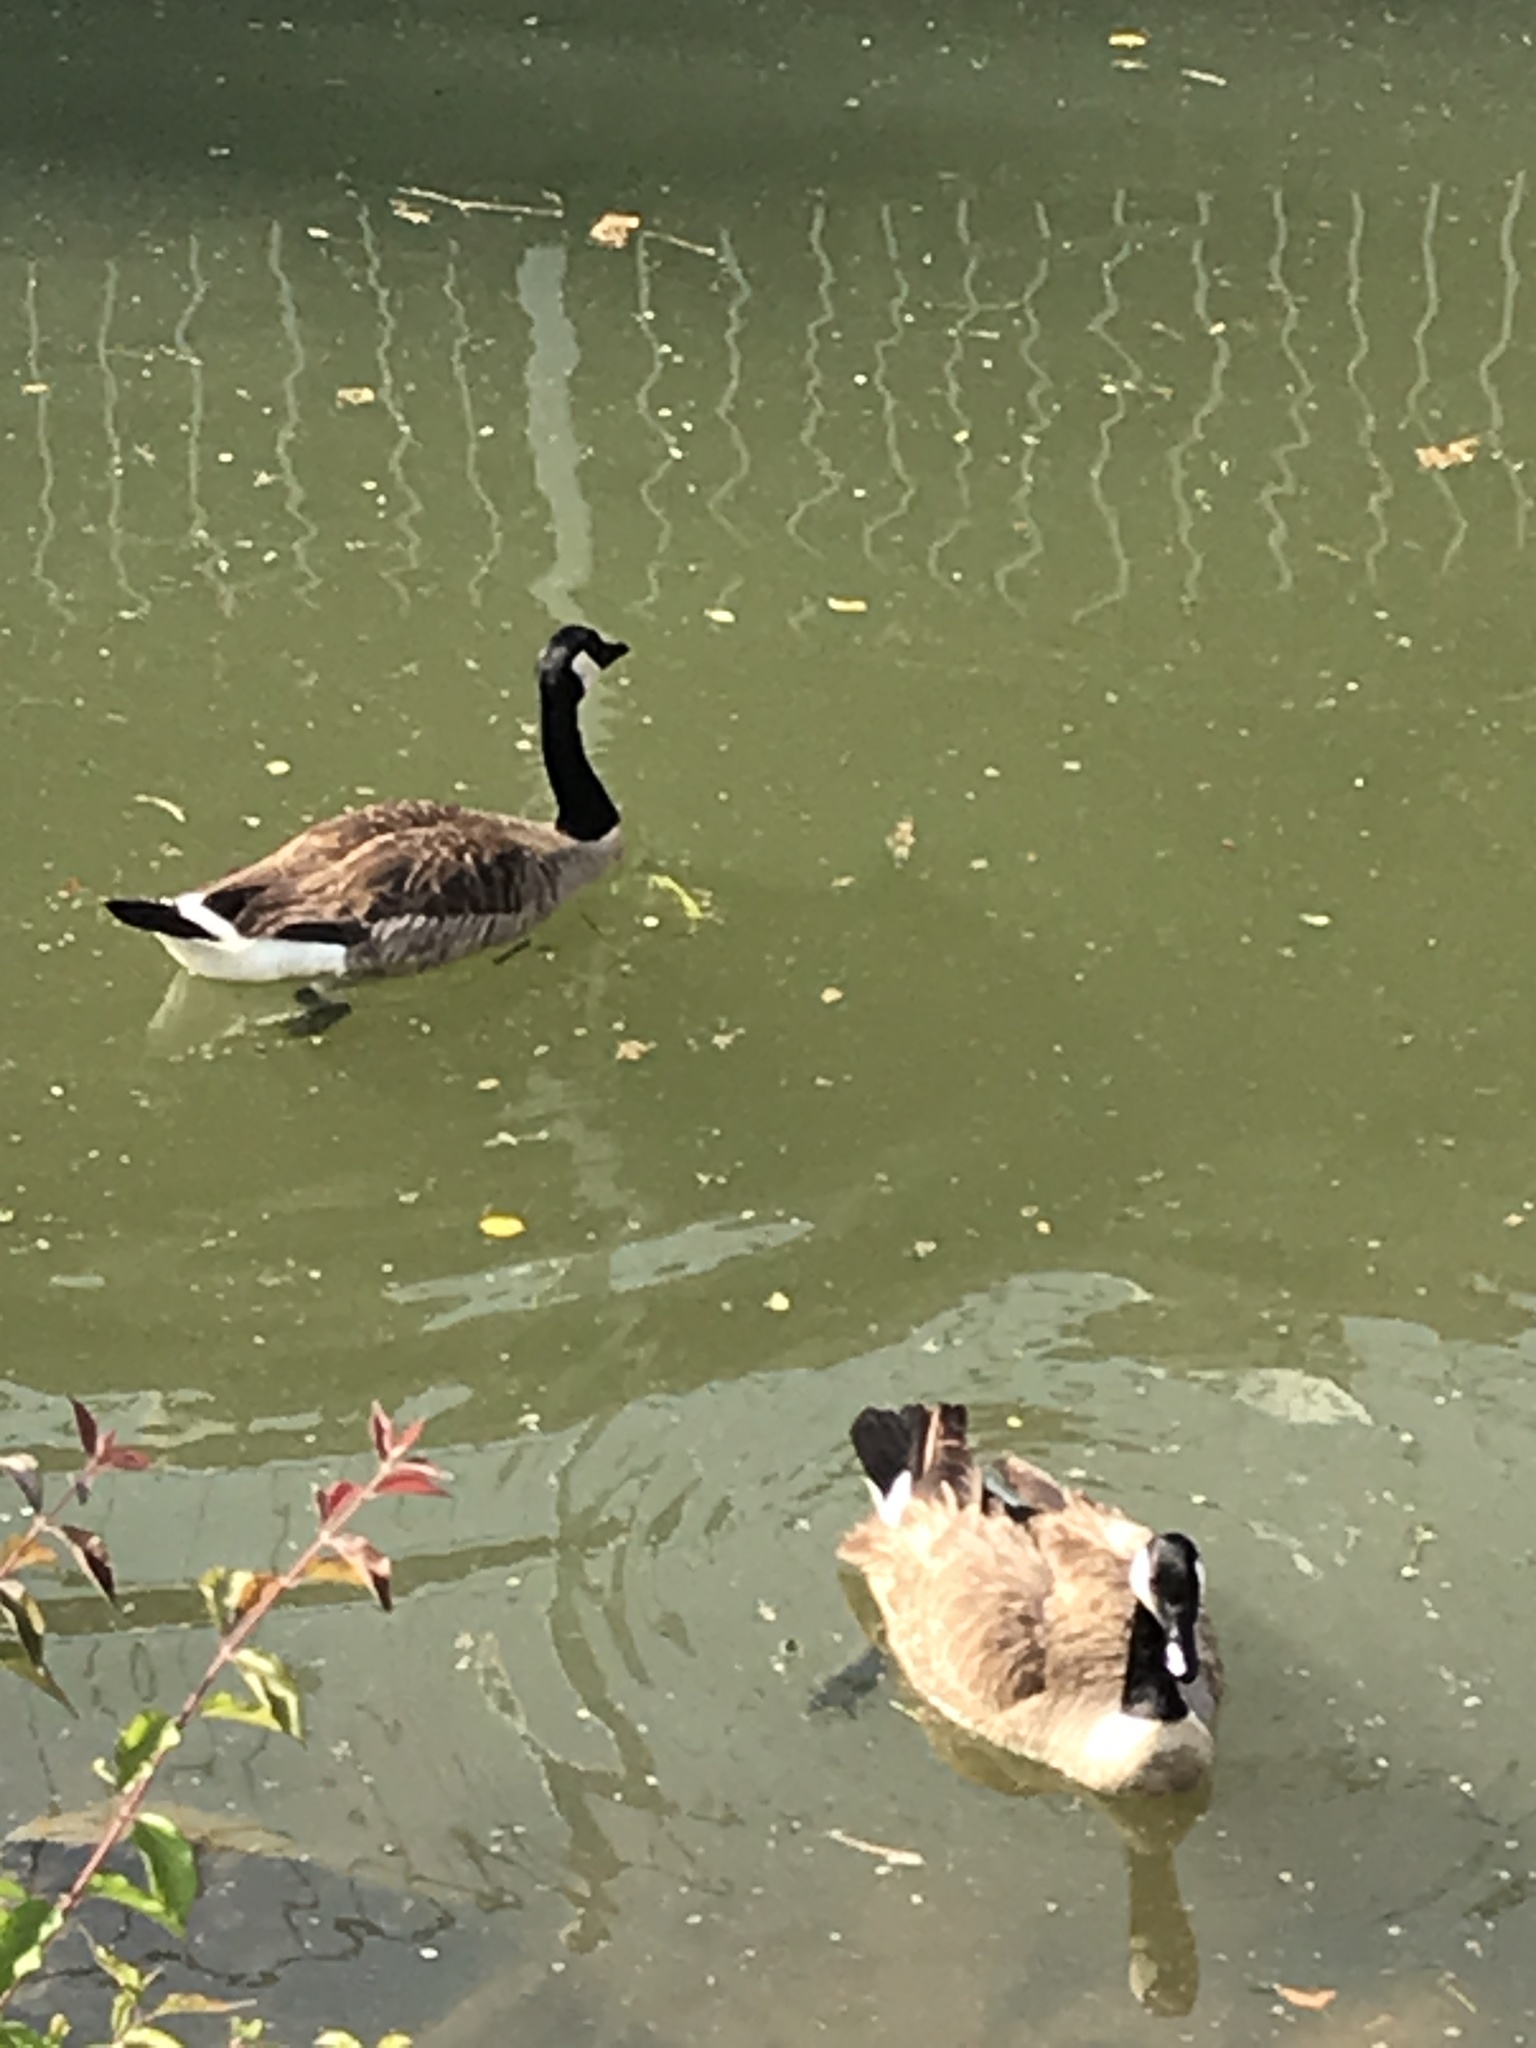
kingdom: Animalia
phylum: Chordata
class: Aves
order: Anseriformes
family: Anatidae
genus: Branta
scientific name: Branta canadensis
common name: Canada goose
